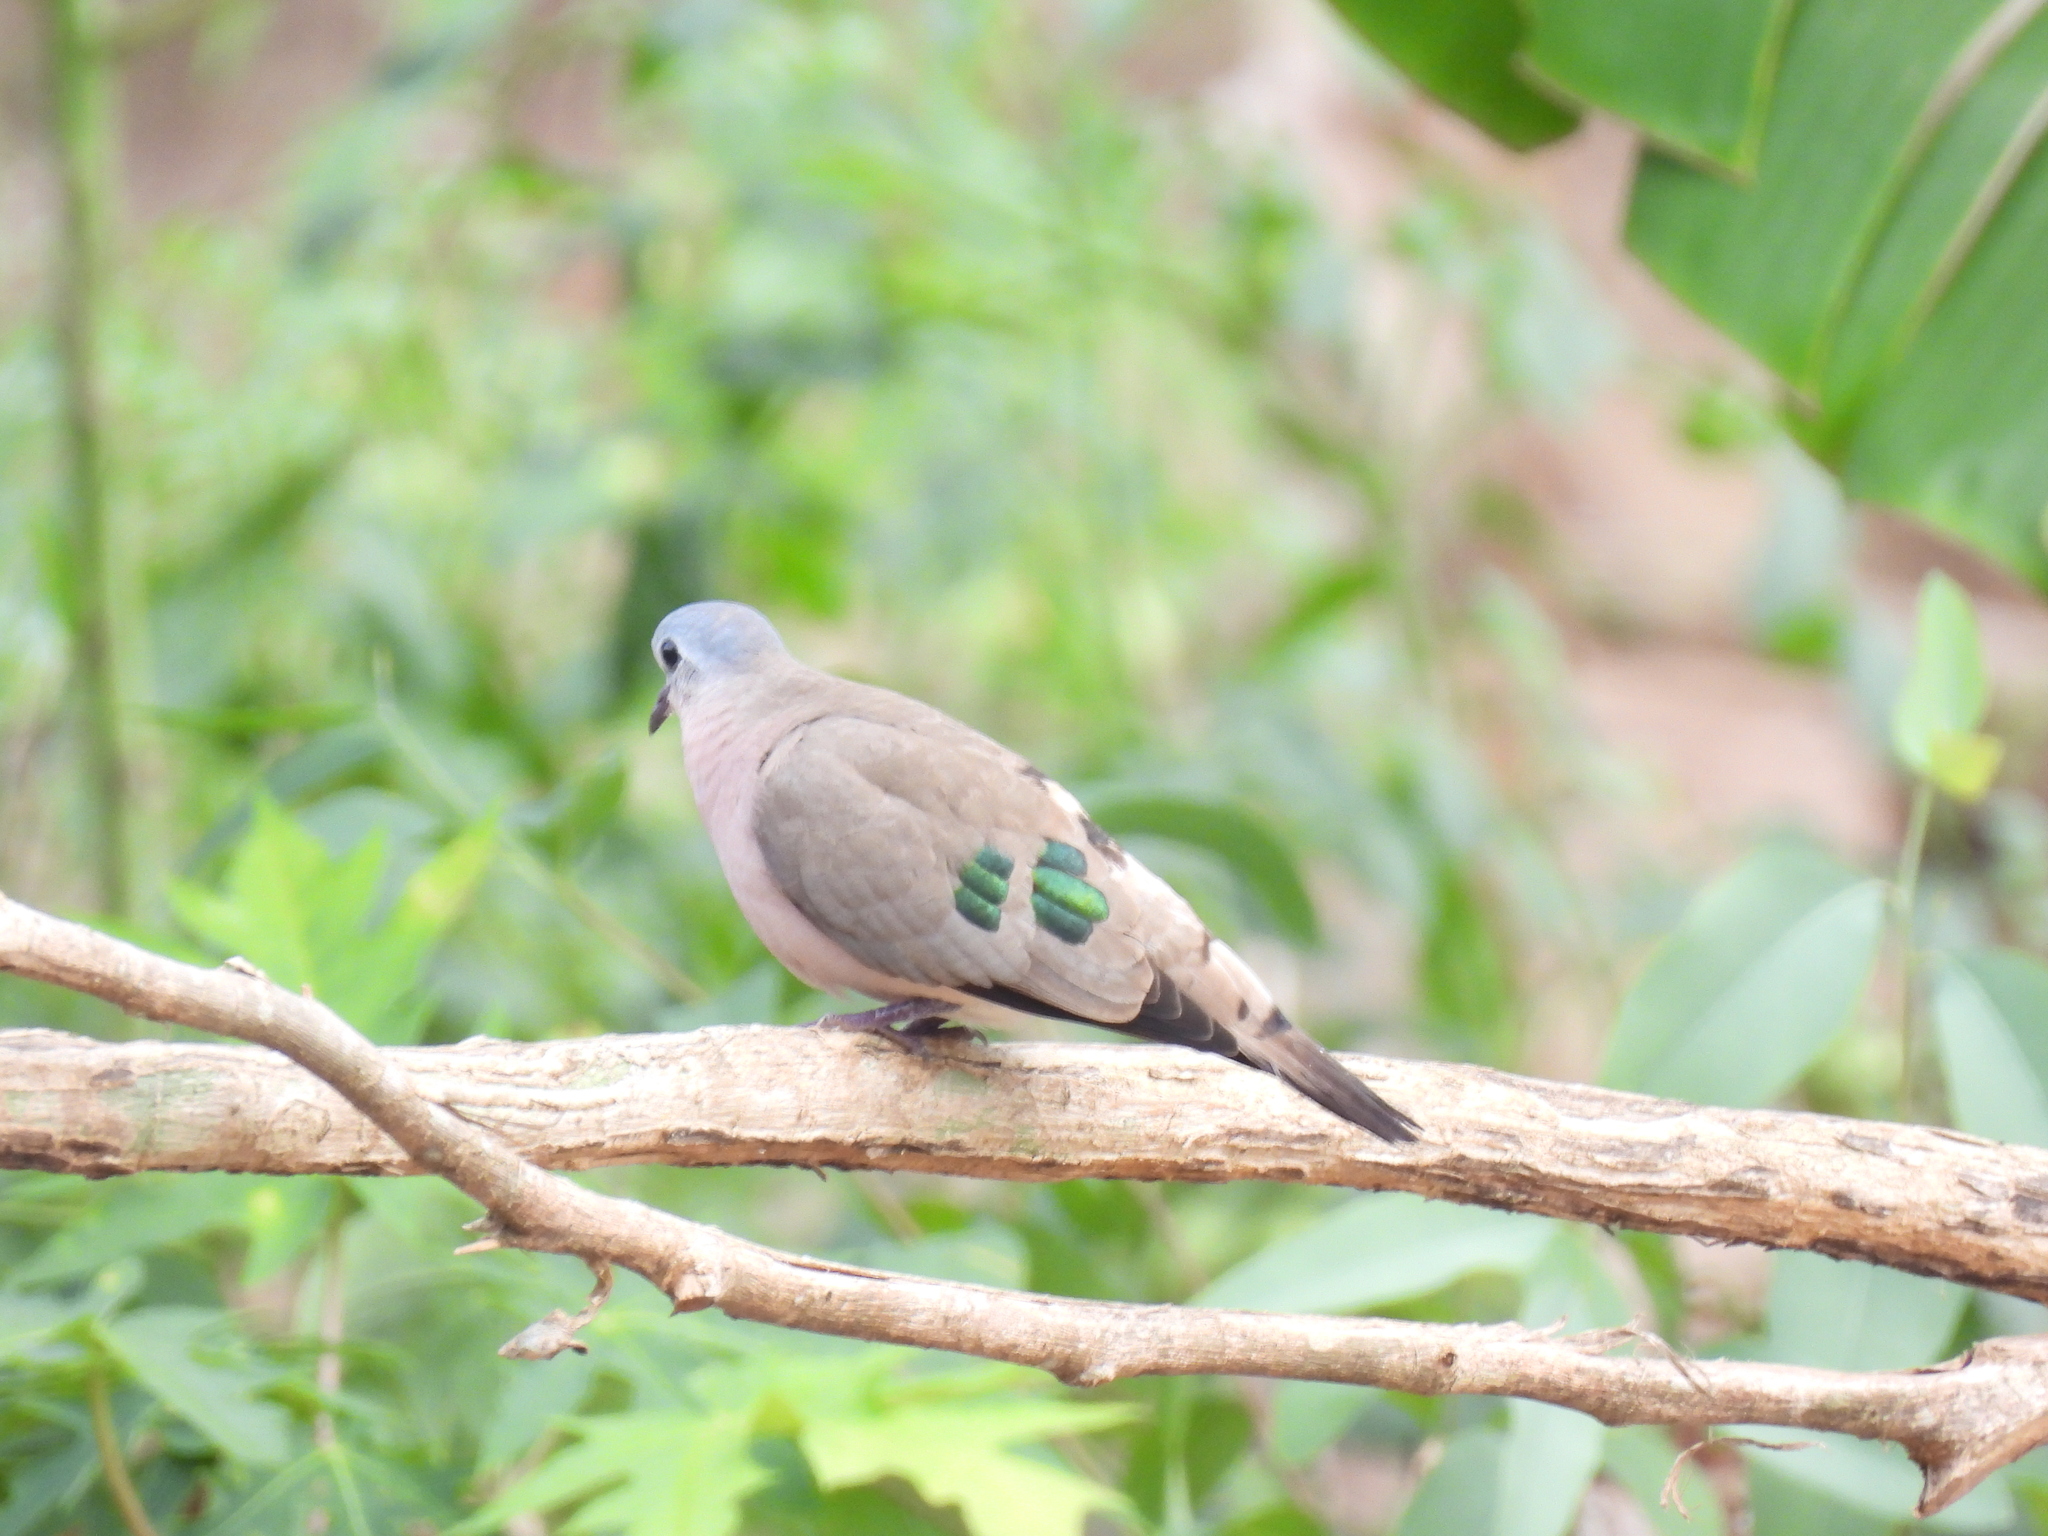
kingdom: Animalia
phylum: Chordata
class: Aves
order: Columbiformes
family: Columbidae
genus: Turtur
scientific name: Turtur chalcospilos
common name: Emerald-spotted wood dove
